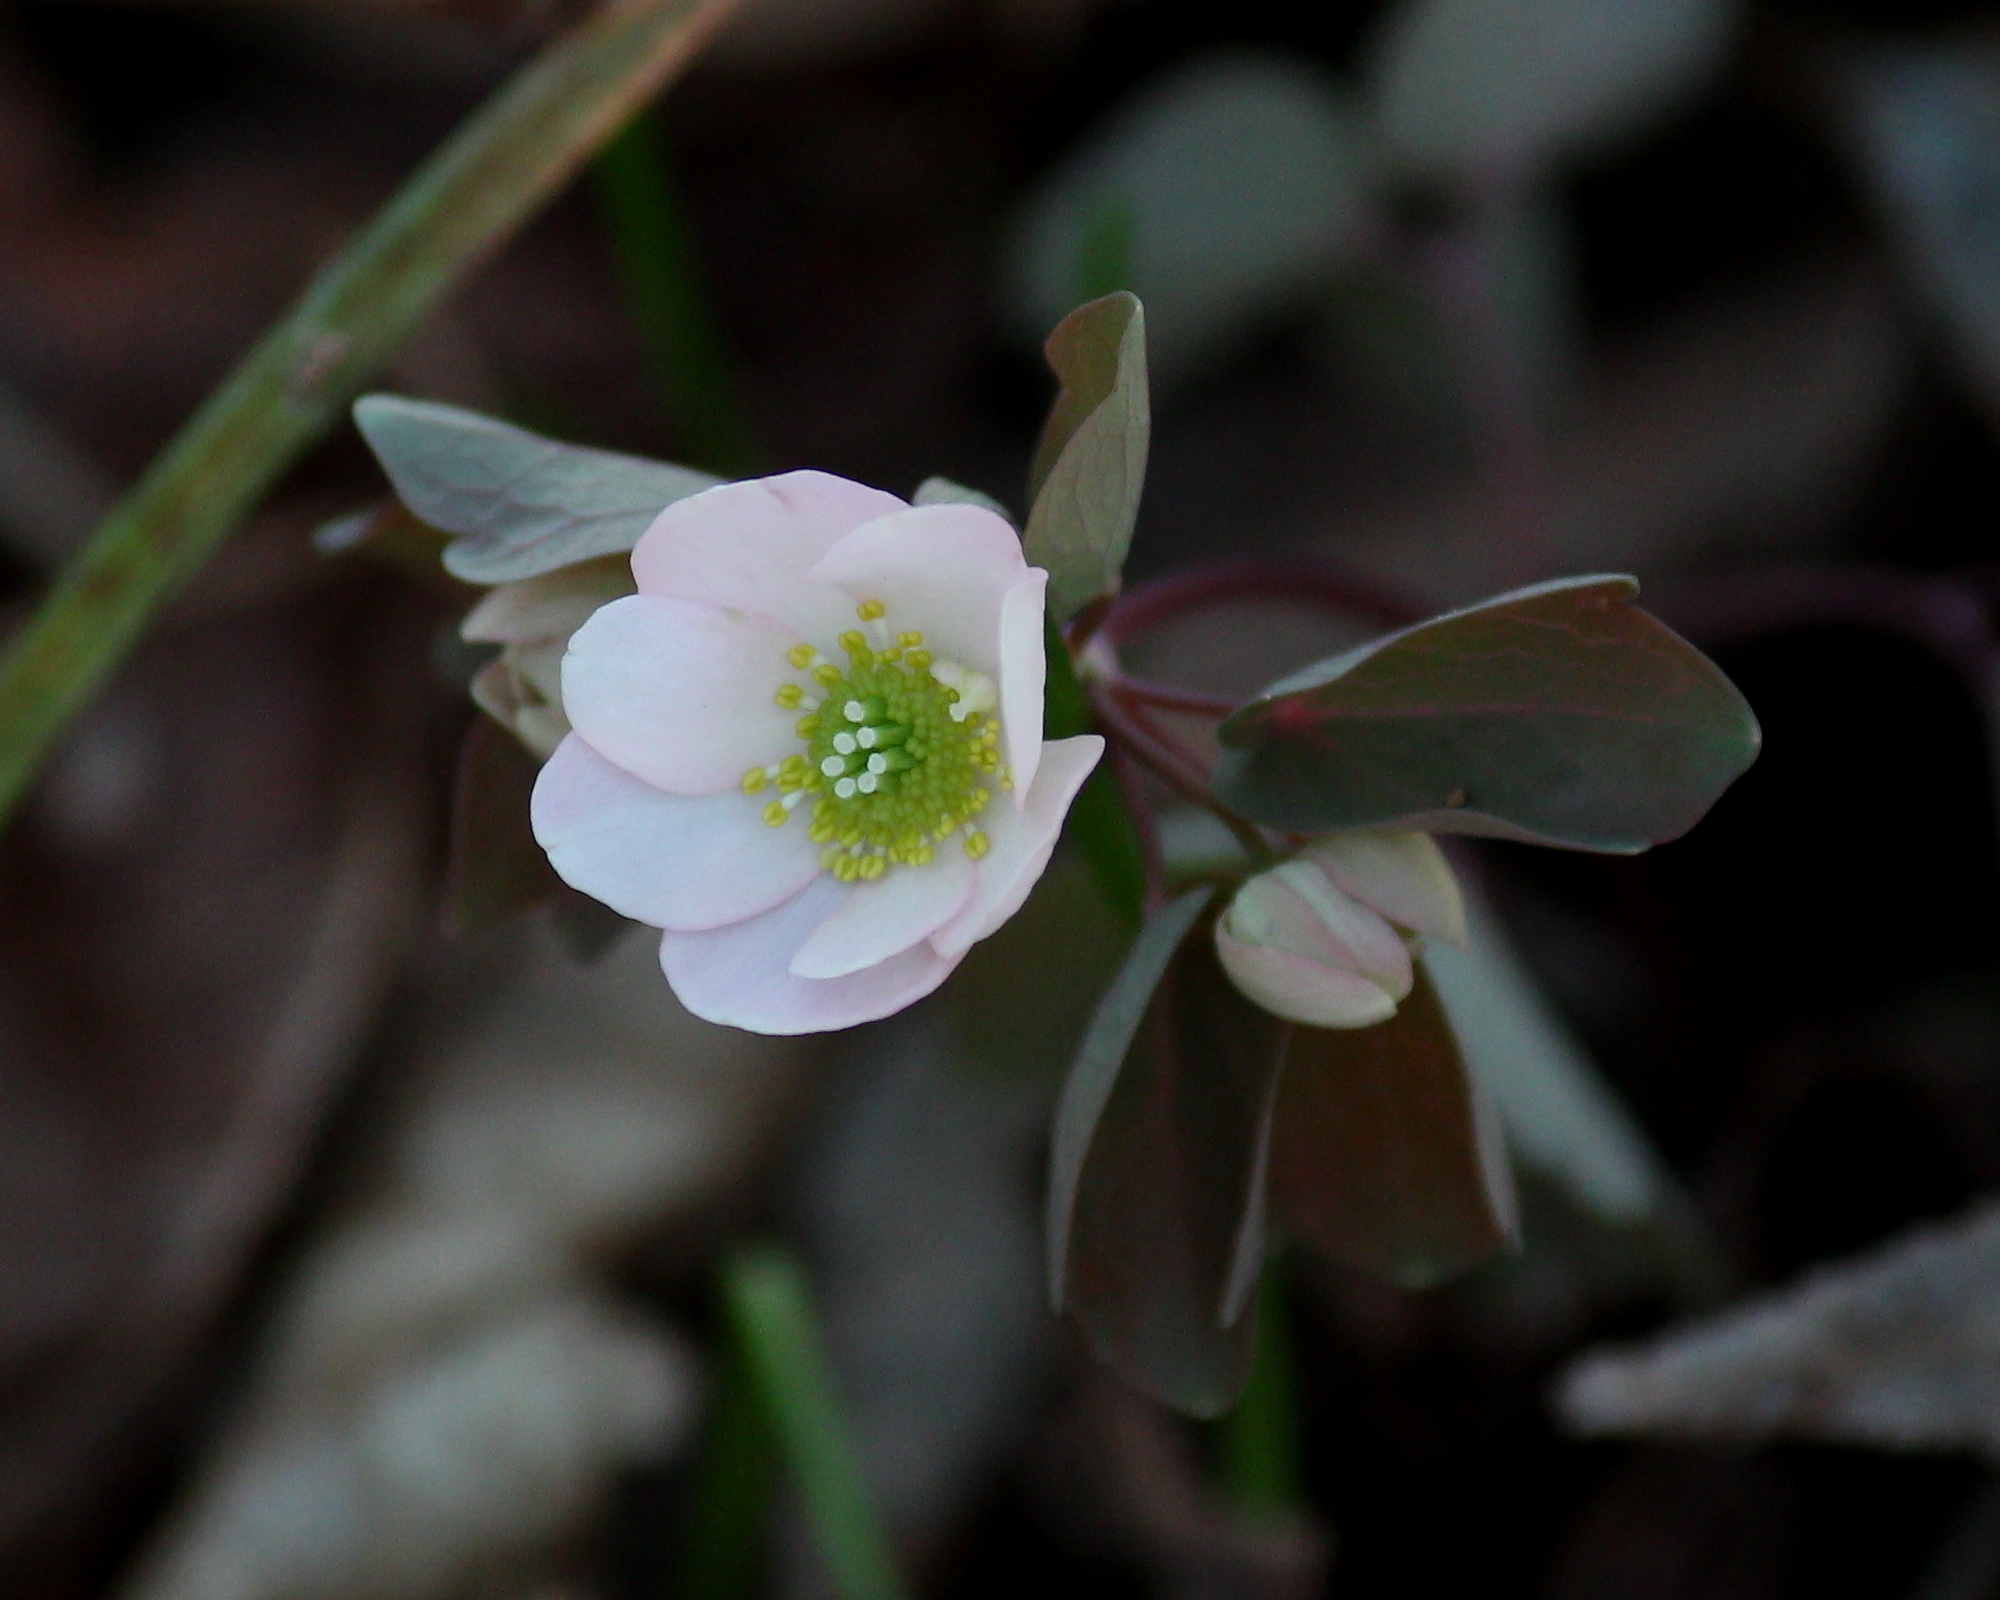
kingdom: Plantae
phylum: Tracheophyta
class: Magnoliopsida
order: Ranunculales
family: Ranunculaceae
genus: Thalictrum
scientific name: Thalictrum thalictroides
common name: Rue-anemone
